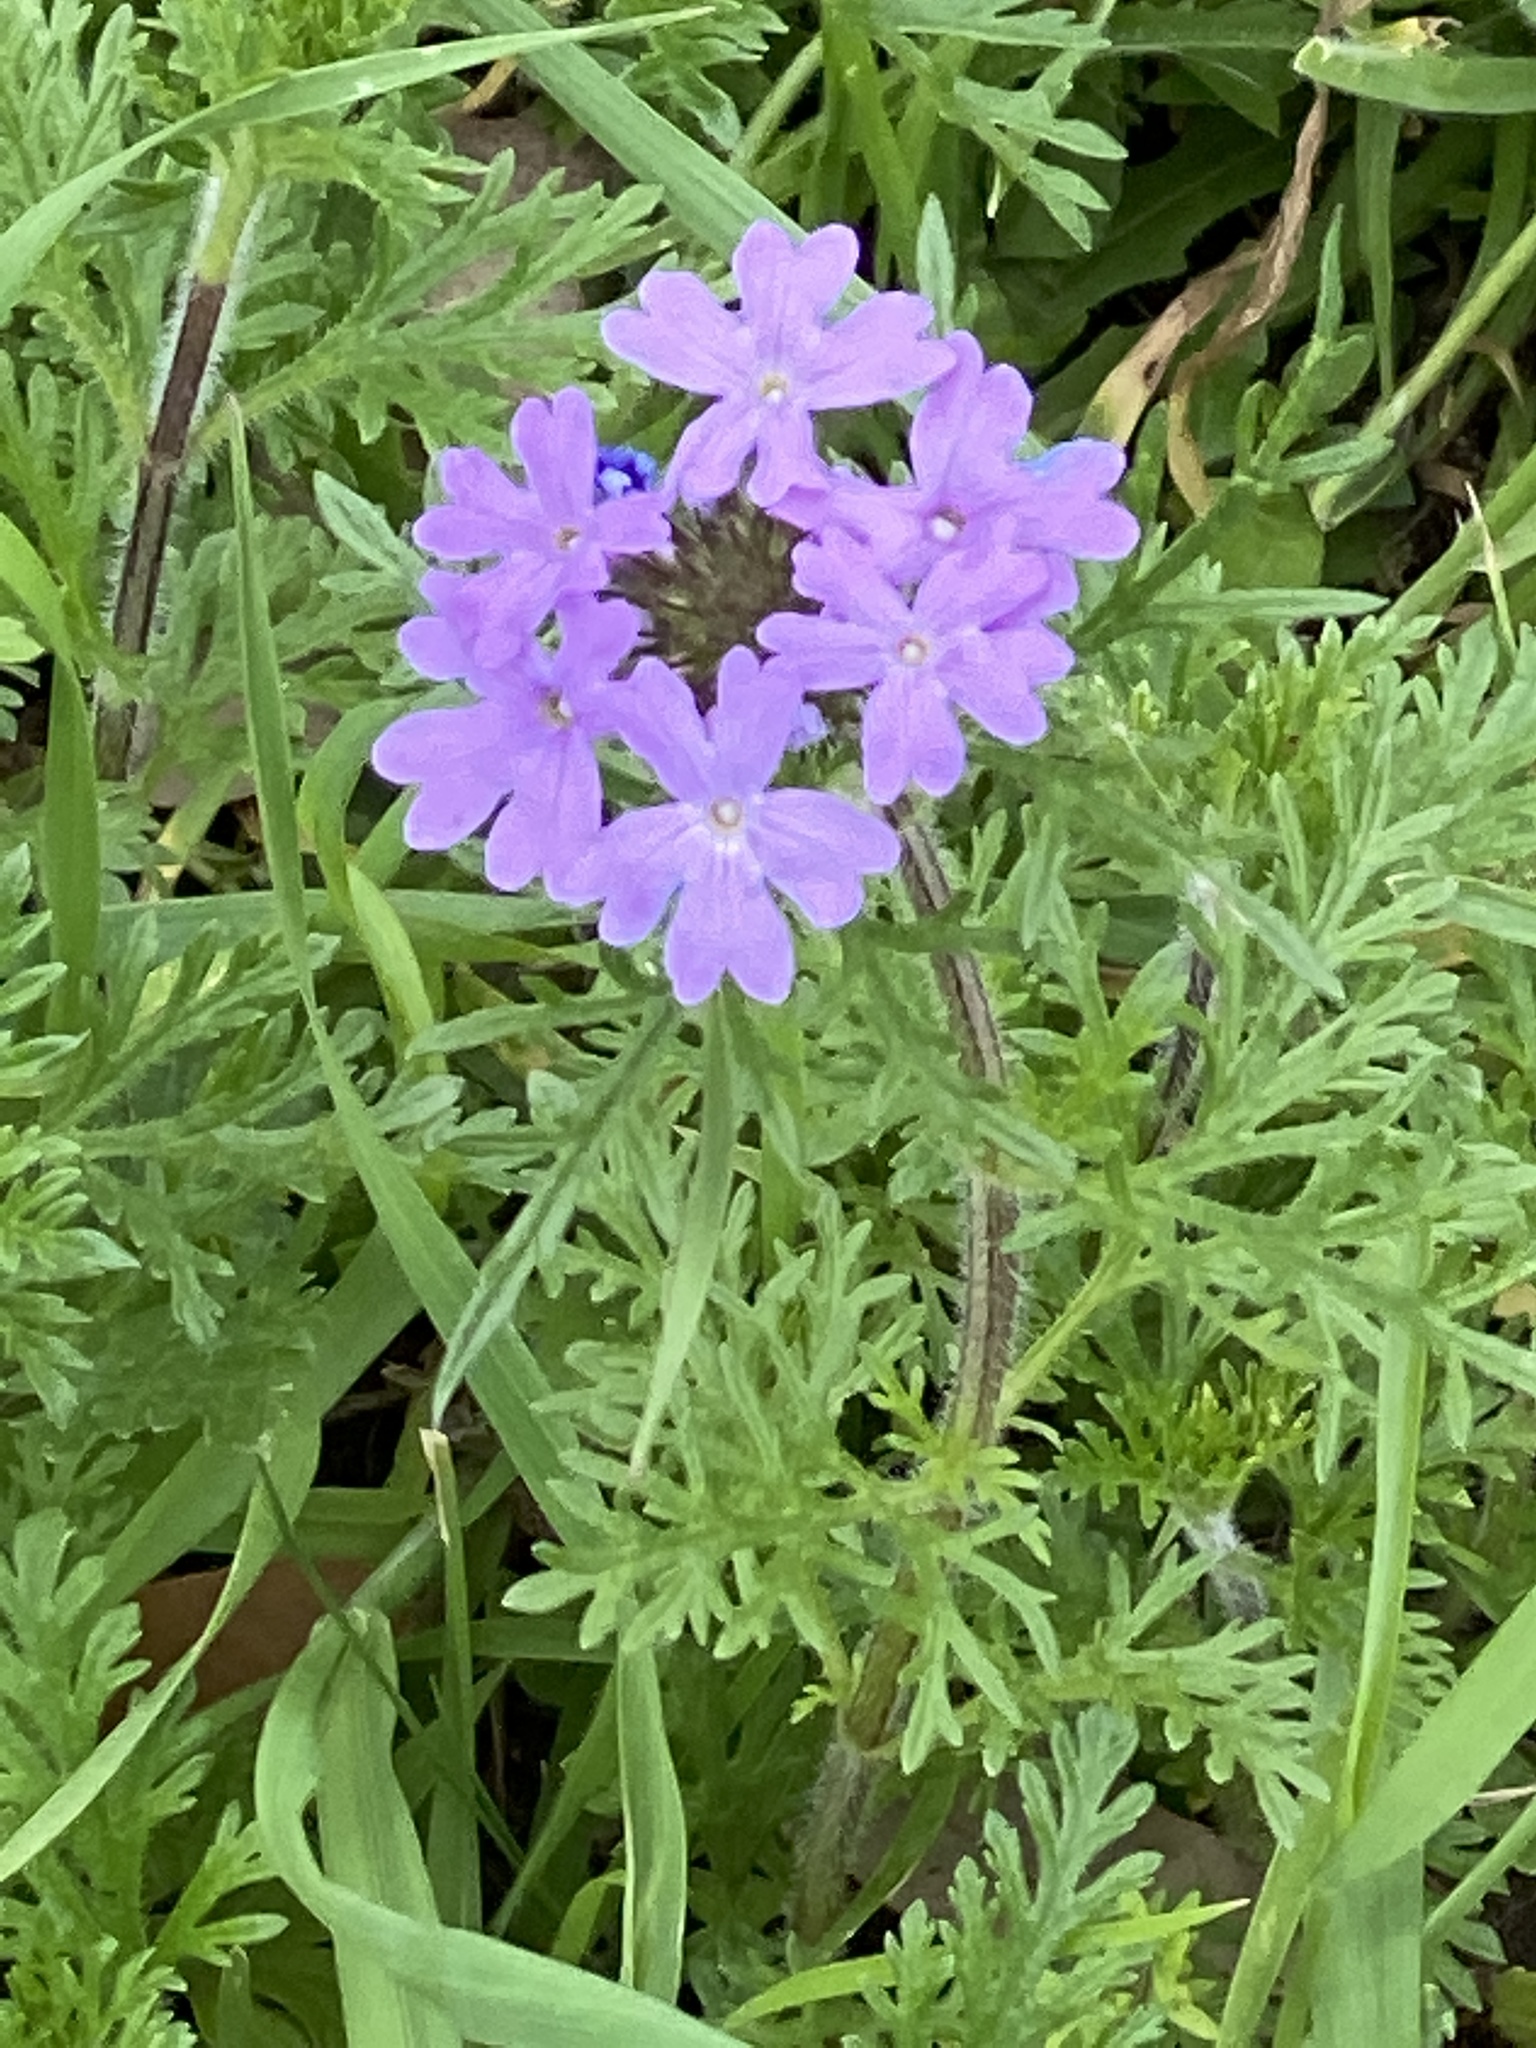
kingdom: Plantae
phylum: Tracheophyta
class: Magnoliopsida
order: Lamiales
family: Verbenaceae
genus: Verbena
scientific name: Verbena bipinnatifida
